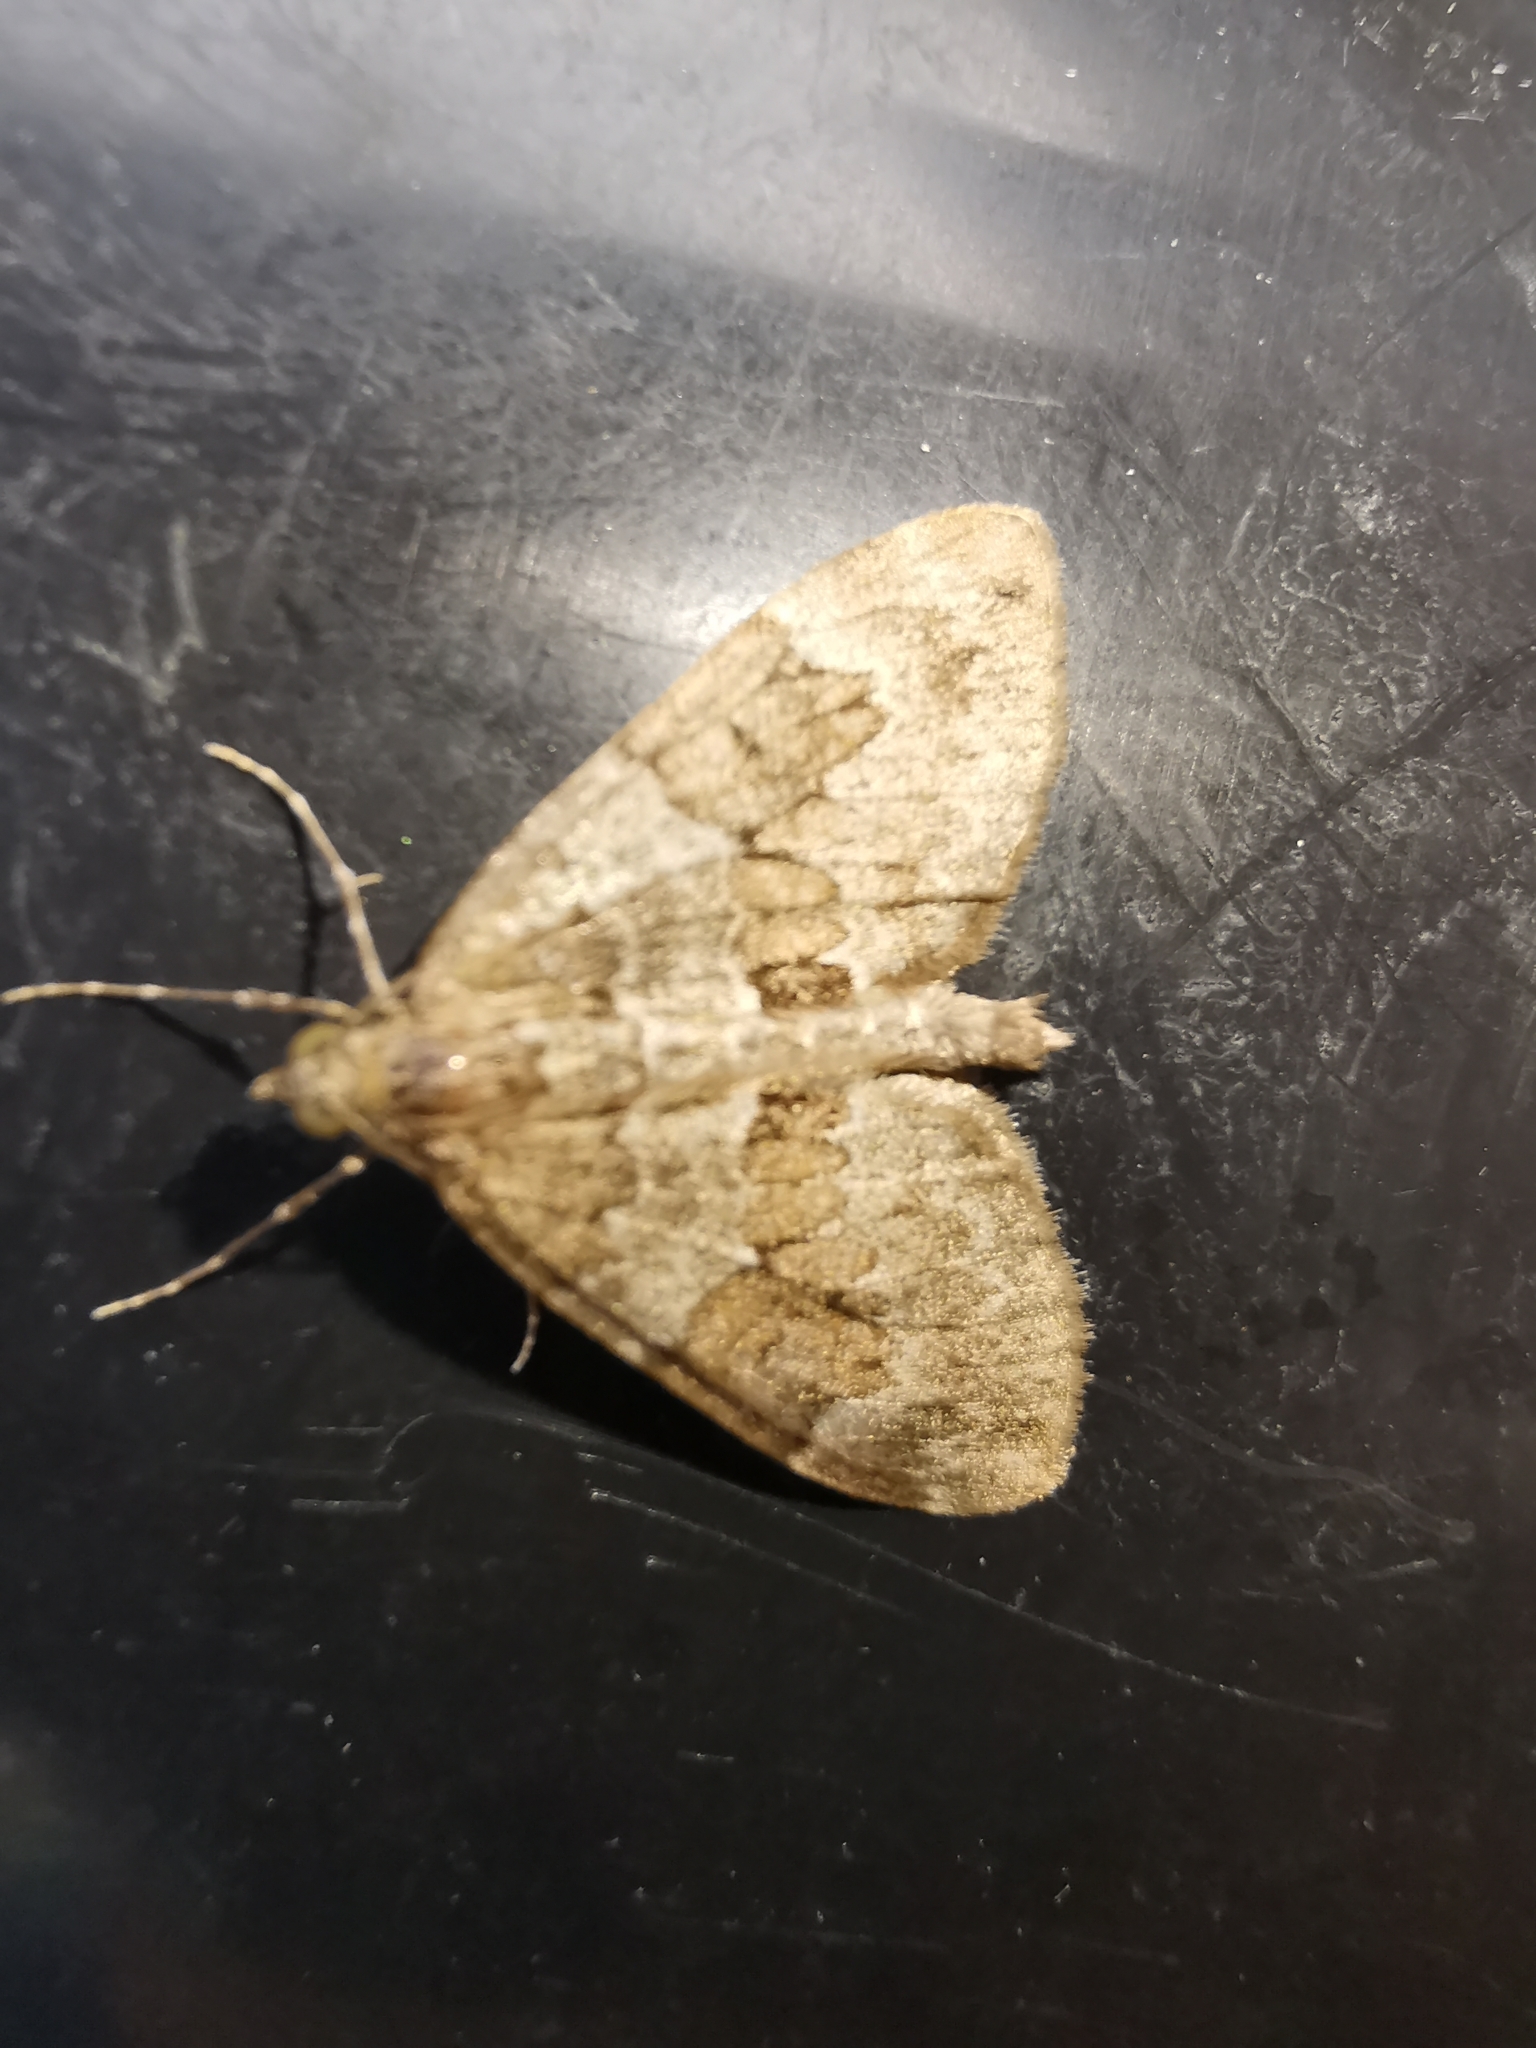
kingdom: Animalia
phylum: Arthropoda
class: Insecta
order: Lepidoptera
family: Geometridae
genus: Thera
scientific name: Thera obeliscata
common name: Grey pine carpet
